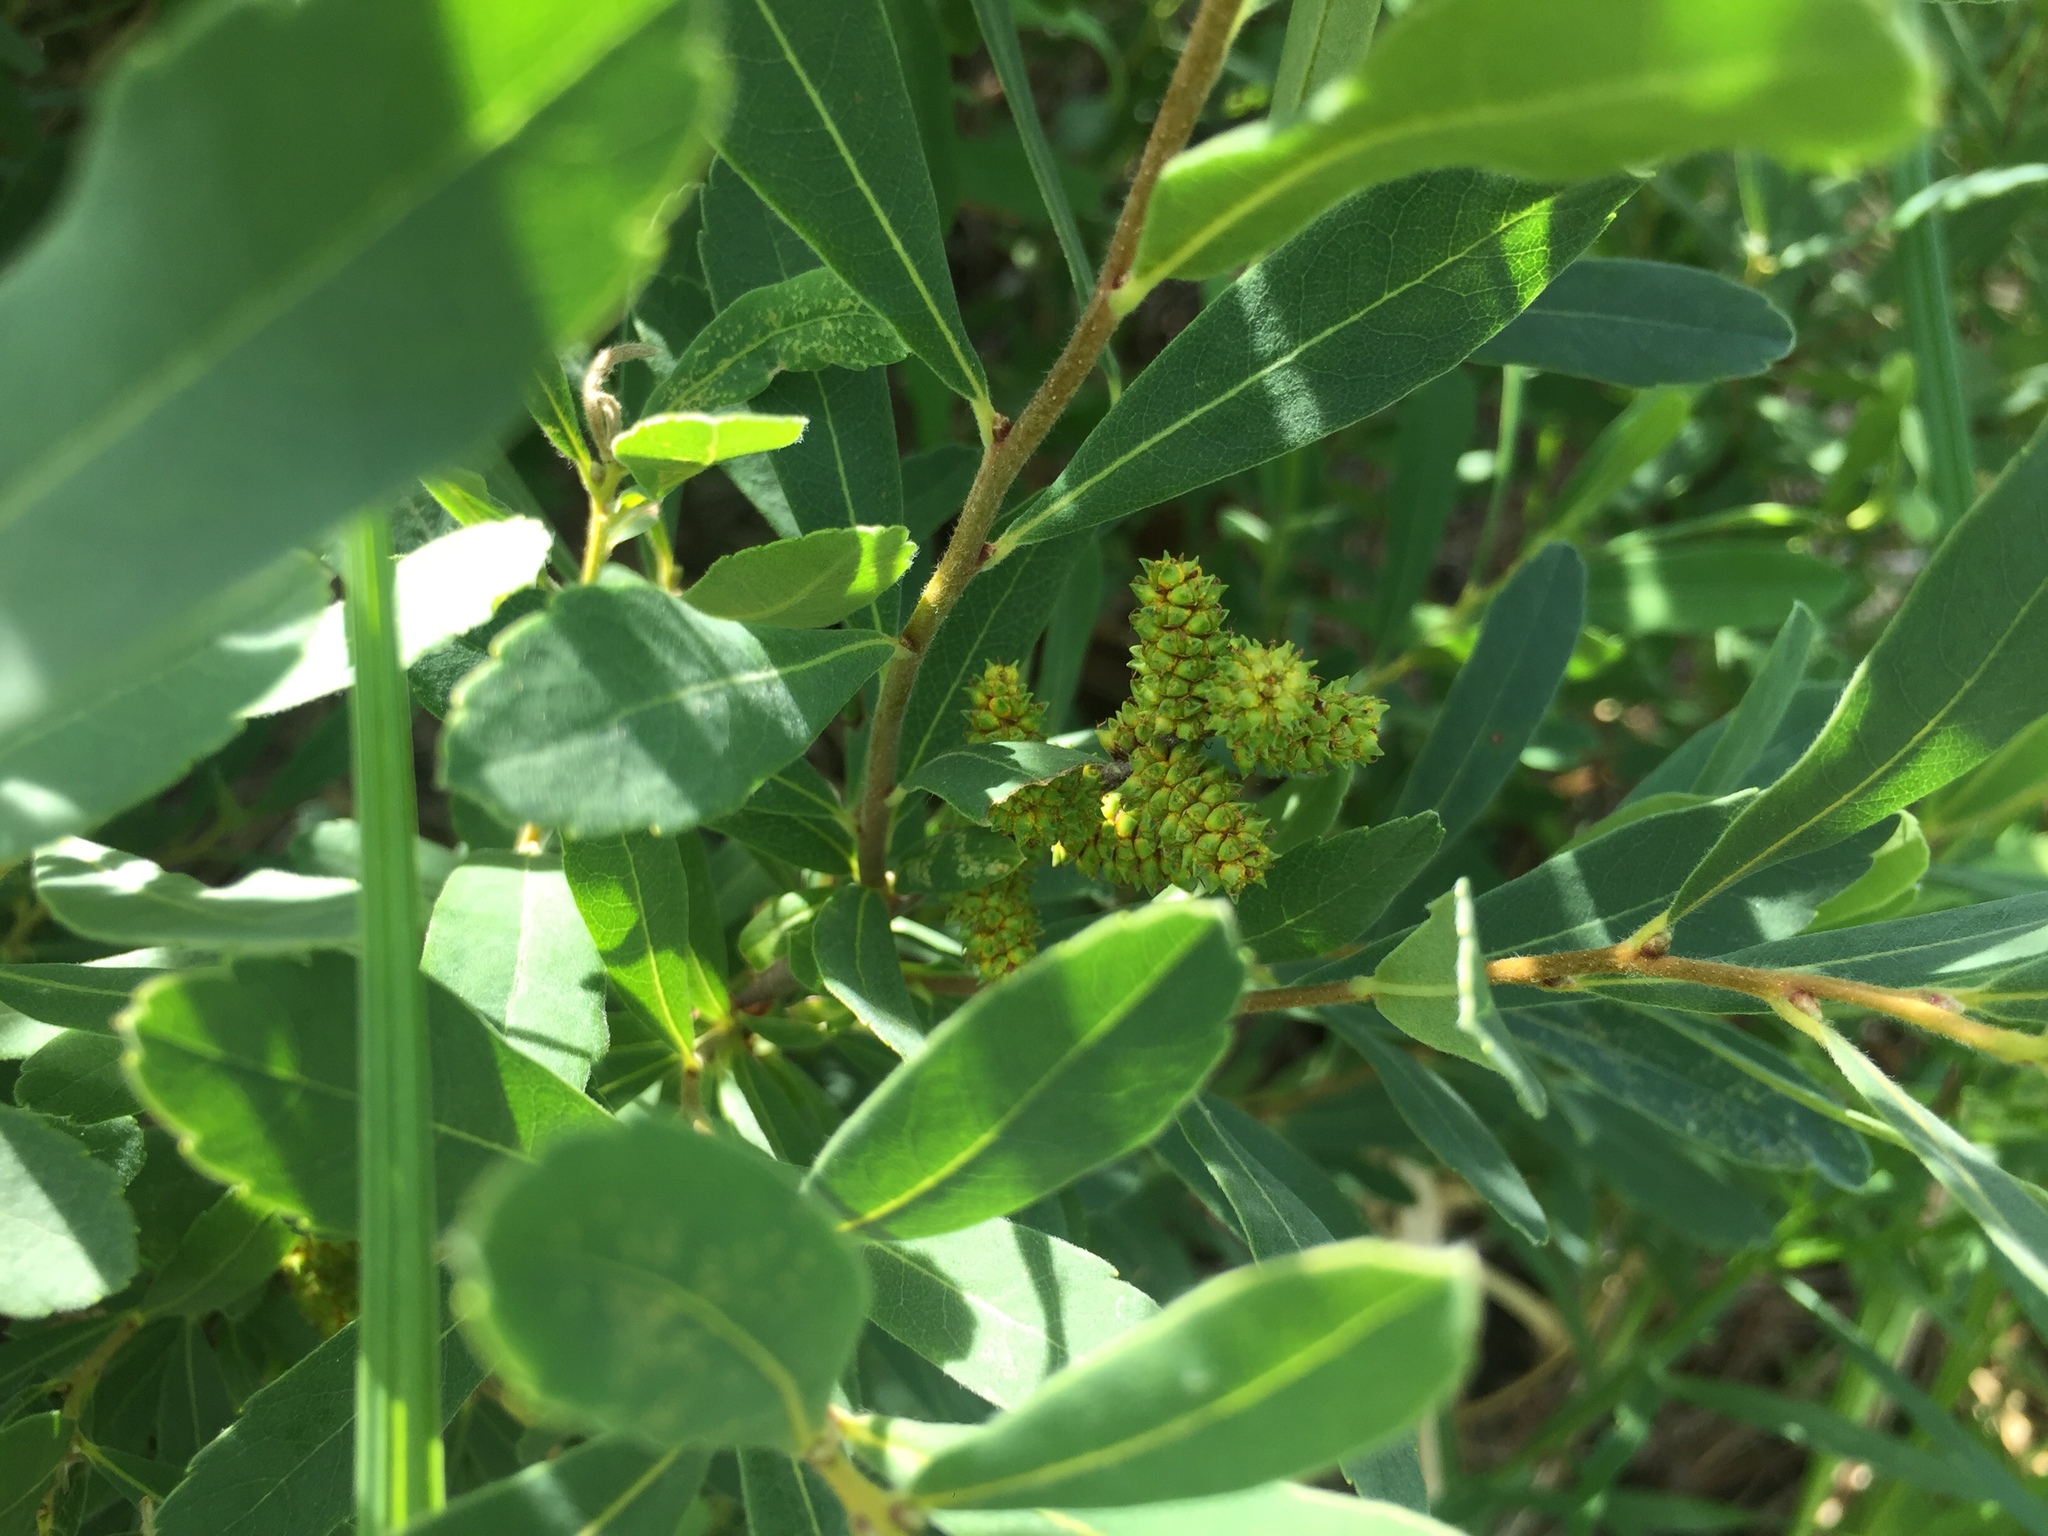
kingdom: Plantae
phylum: Tracheophyta
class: Magnoliopsida
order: Fagales
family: Myricaceae
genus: Myrica
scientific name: Myrica gale
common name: Sweet gale
